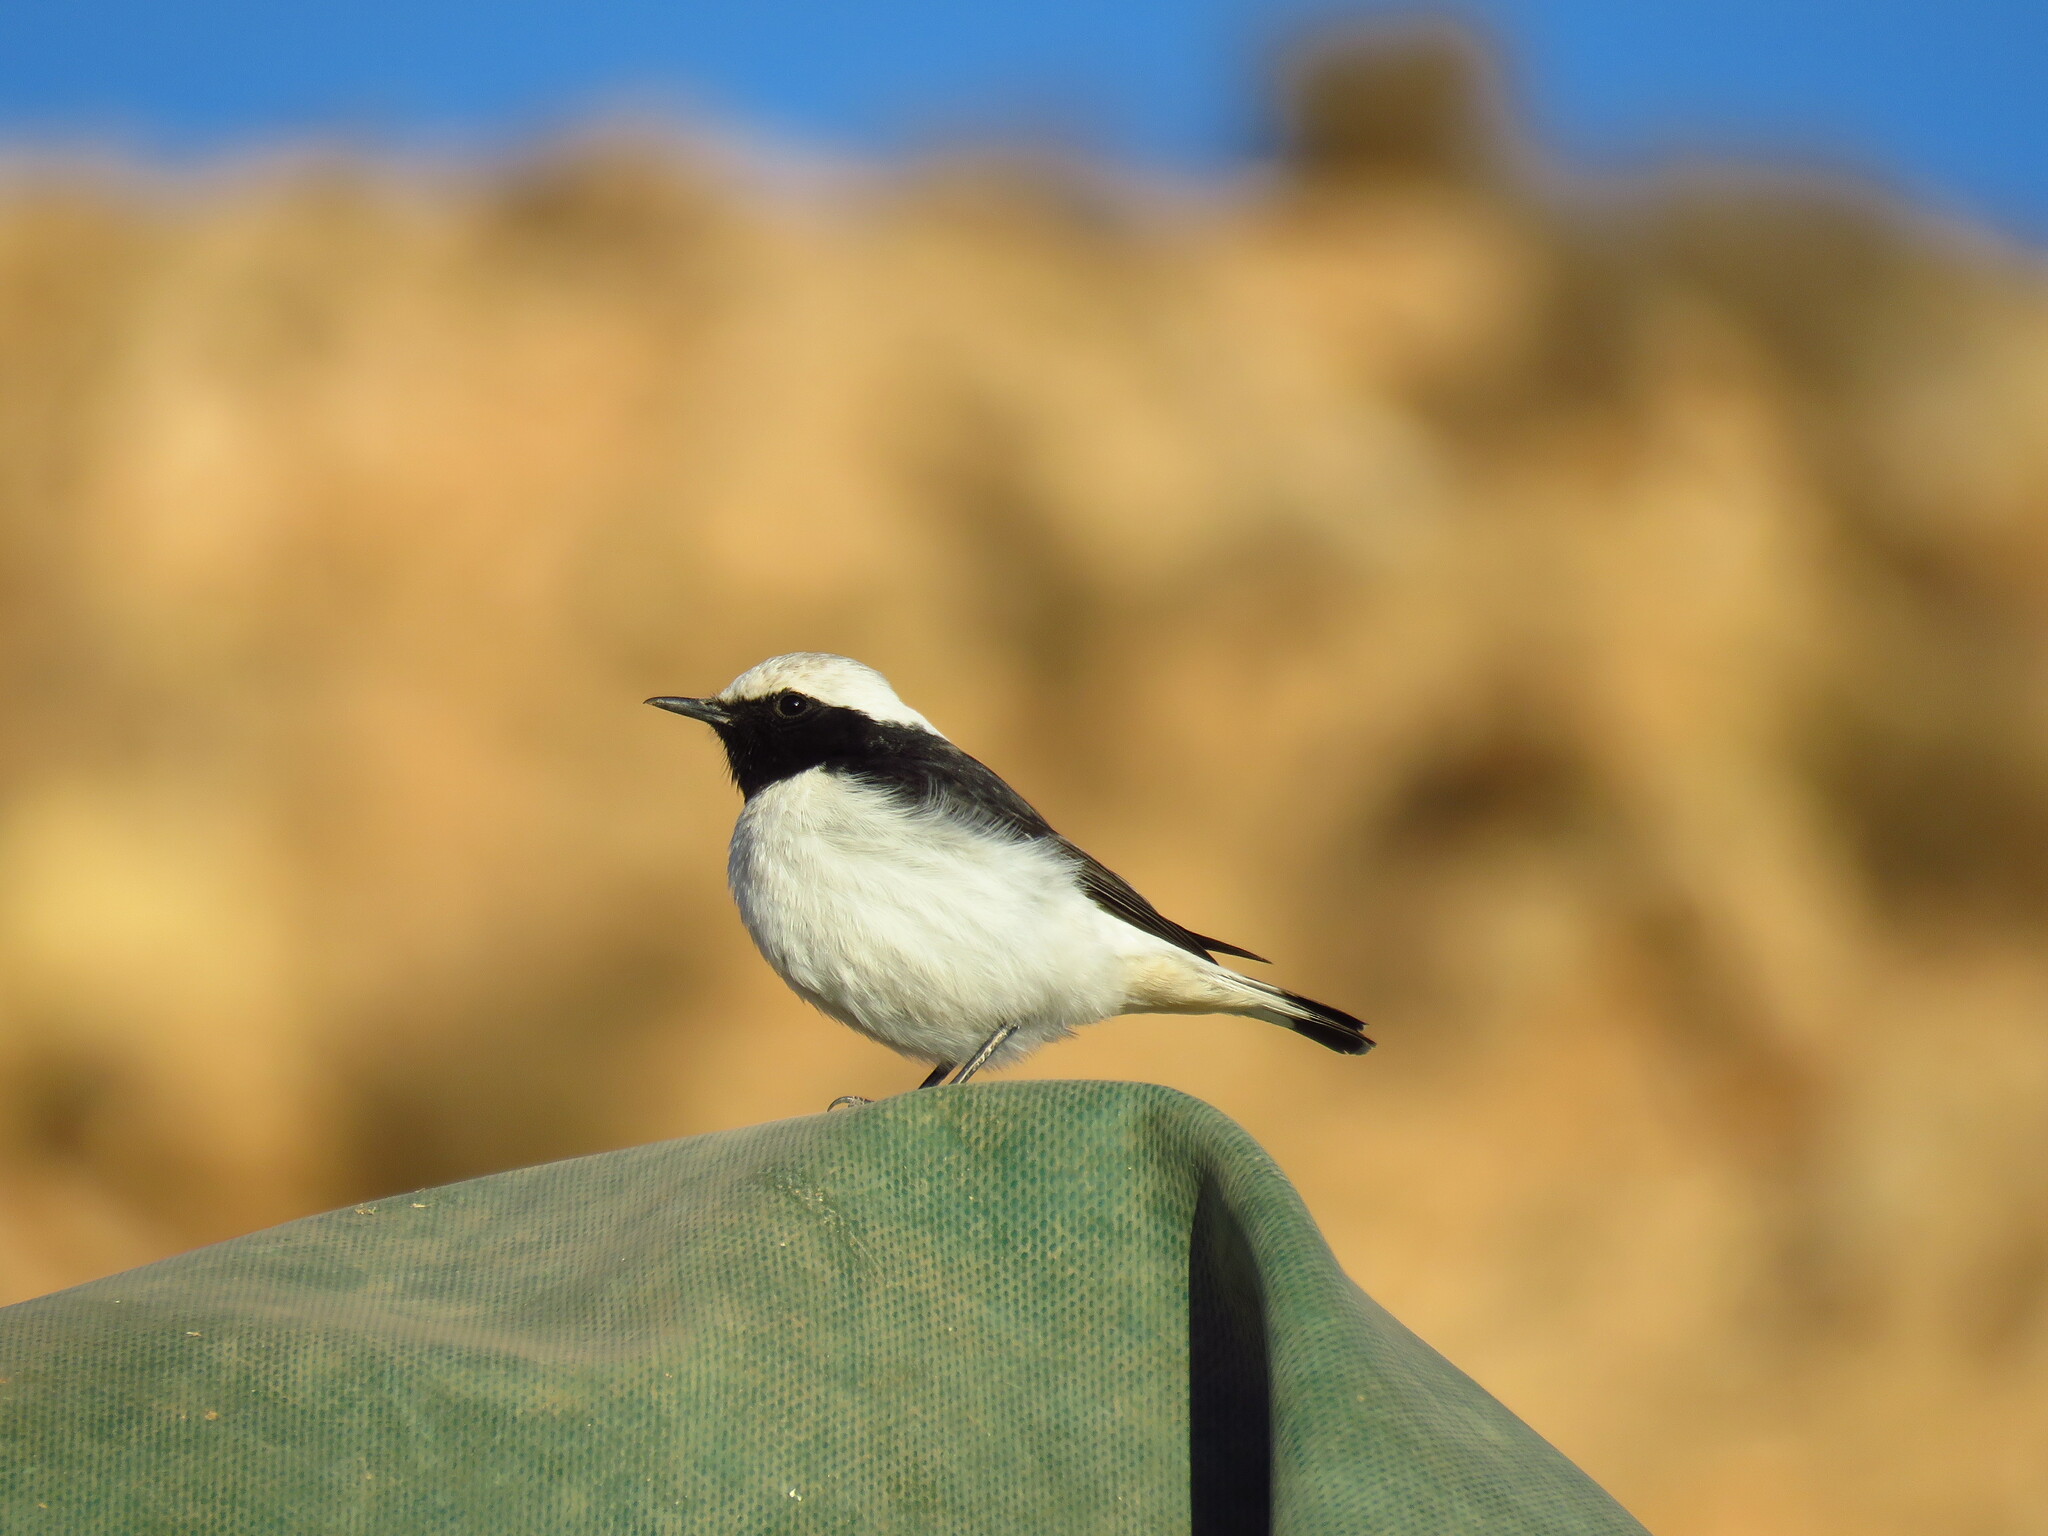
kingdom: Animalia
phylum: Chordata
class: Aves
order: Passeriformes
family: Muscicapidae
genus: Oenanthe
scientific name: Oenanthe lugens
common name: Mourning wheatear
